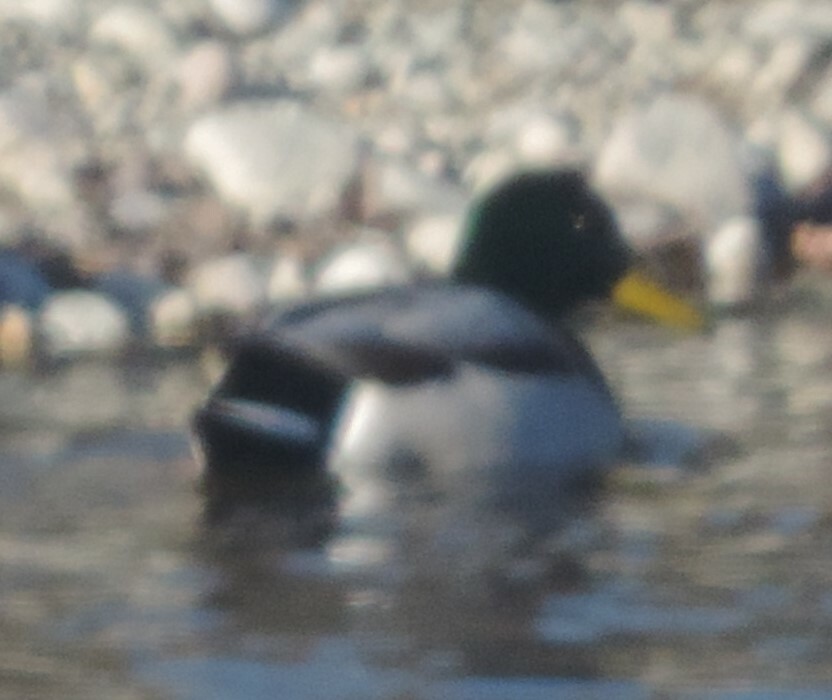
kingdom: Animalia
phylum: Chordata
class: Aves
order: Anseriformes
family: Anatidae
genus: Anas
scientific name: Anas platyrhynchos
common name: Mallard
